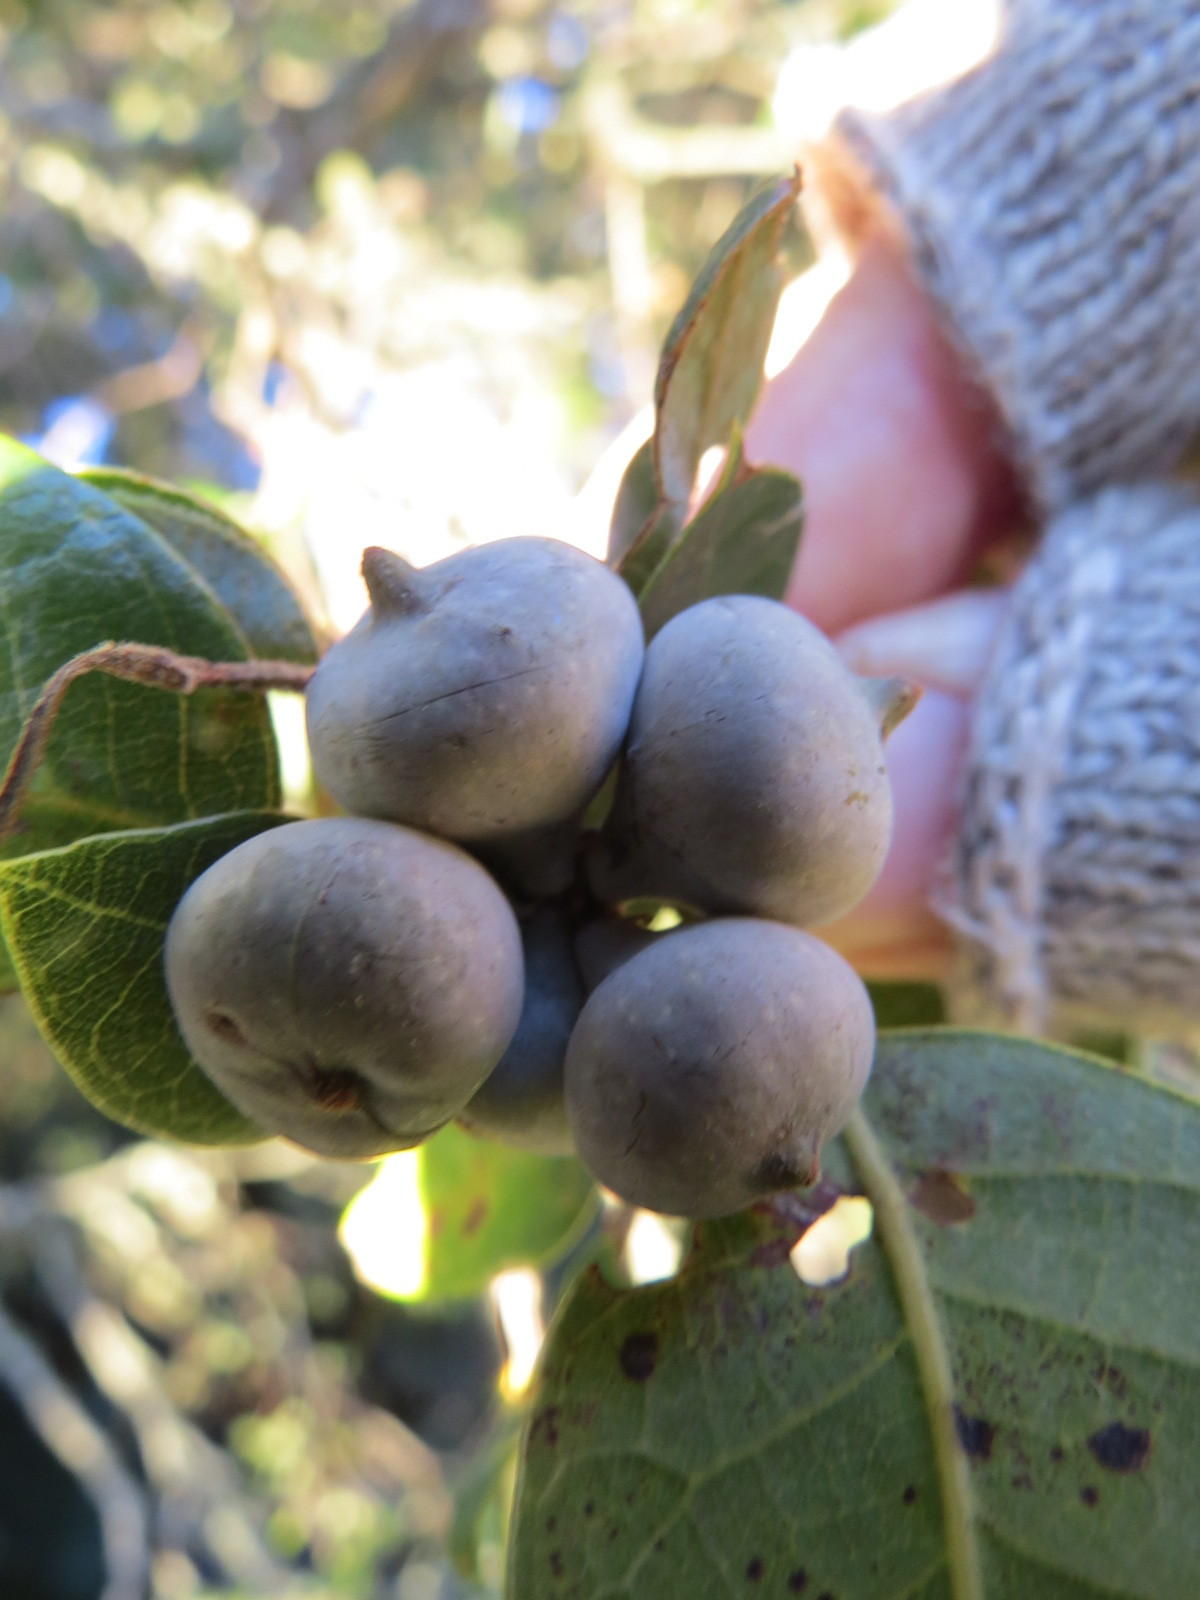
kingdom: Animalia
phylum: Arthropoda
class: Insecta
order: Hymenoptera
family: Cynipidae
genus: Heteroecus
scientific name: Heteroecus
